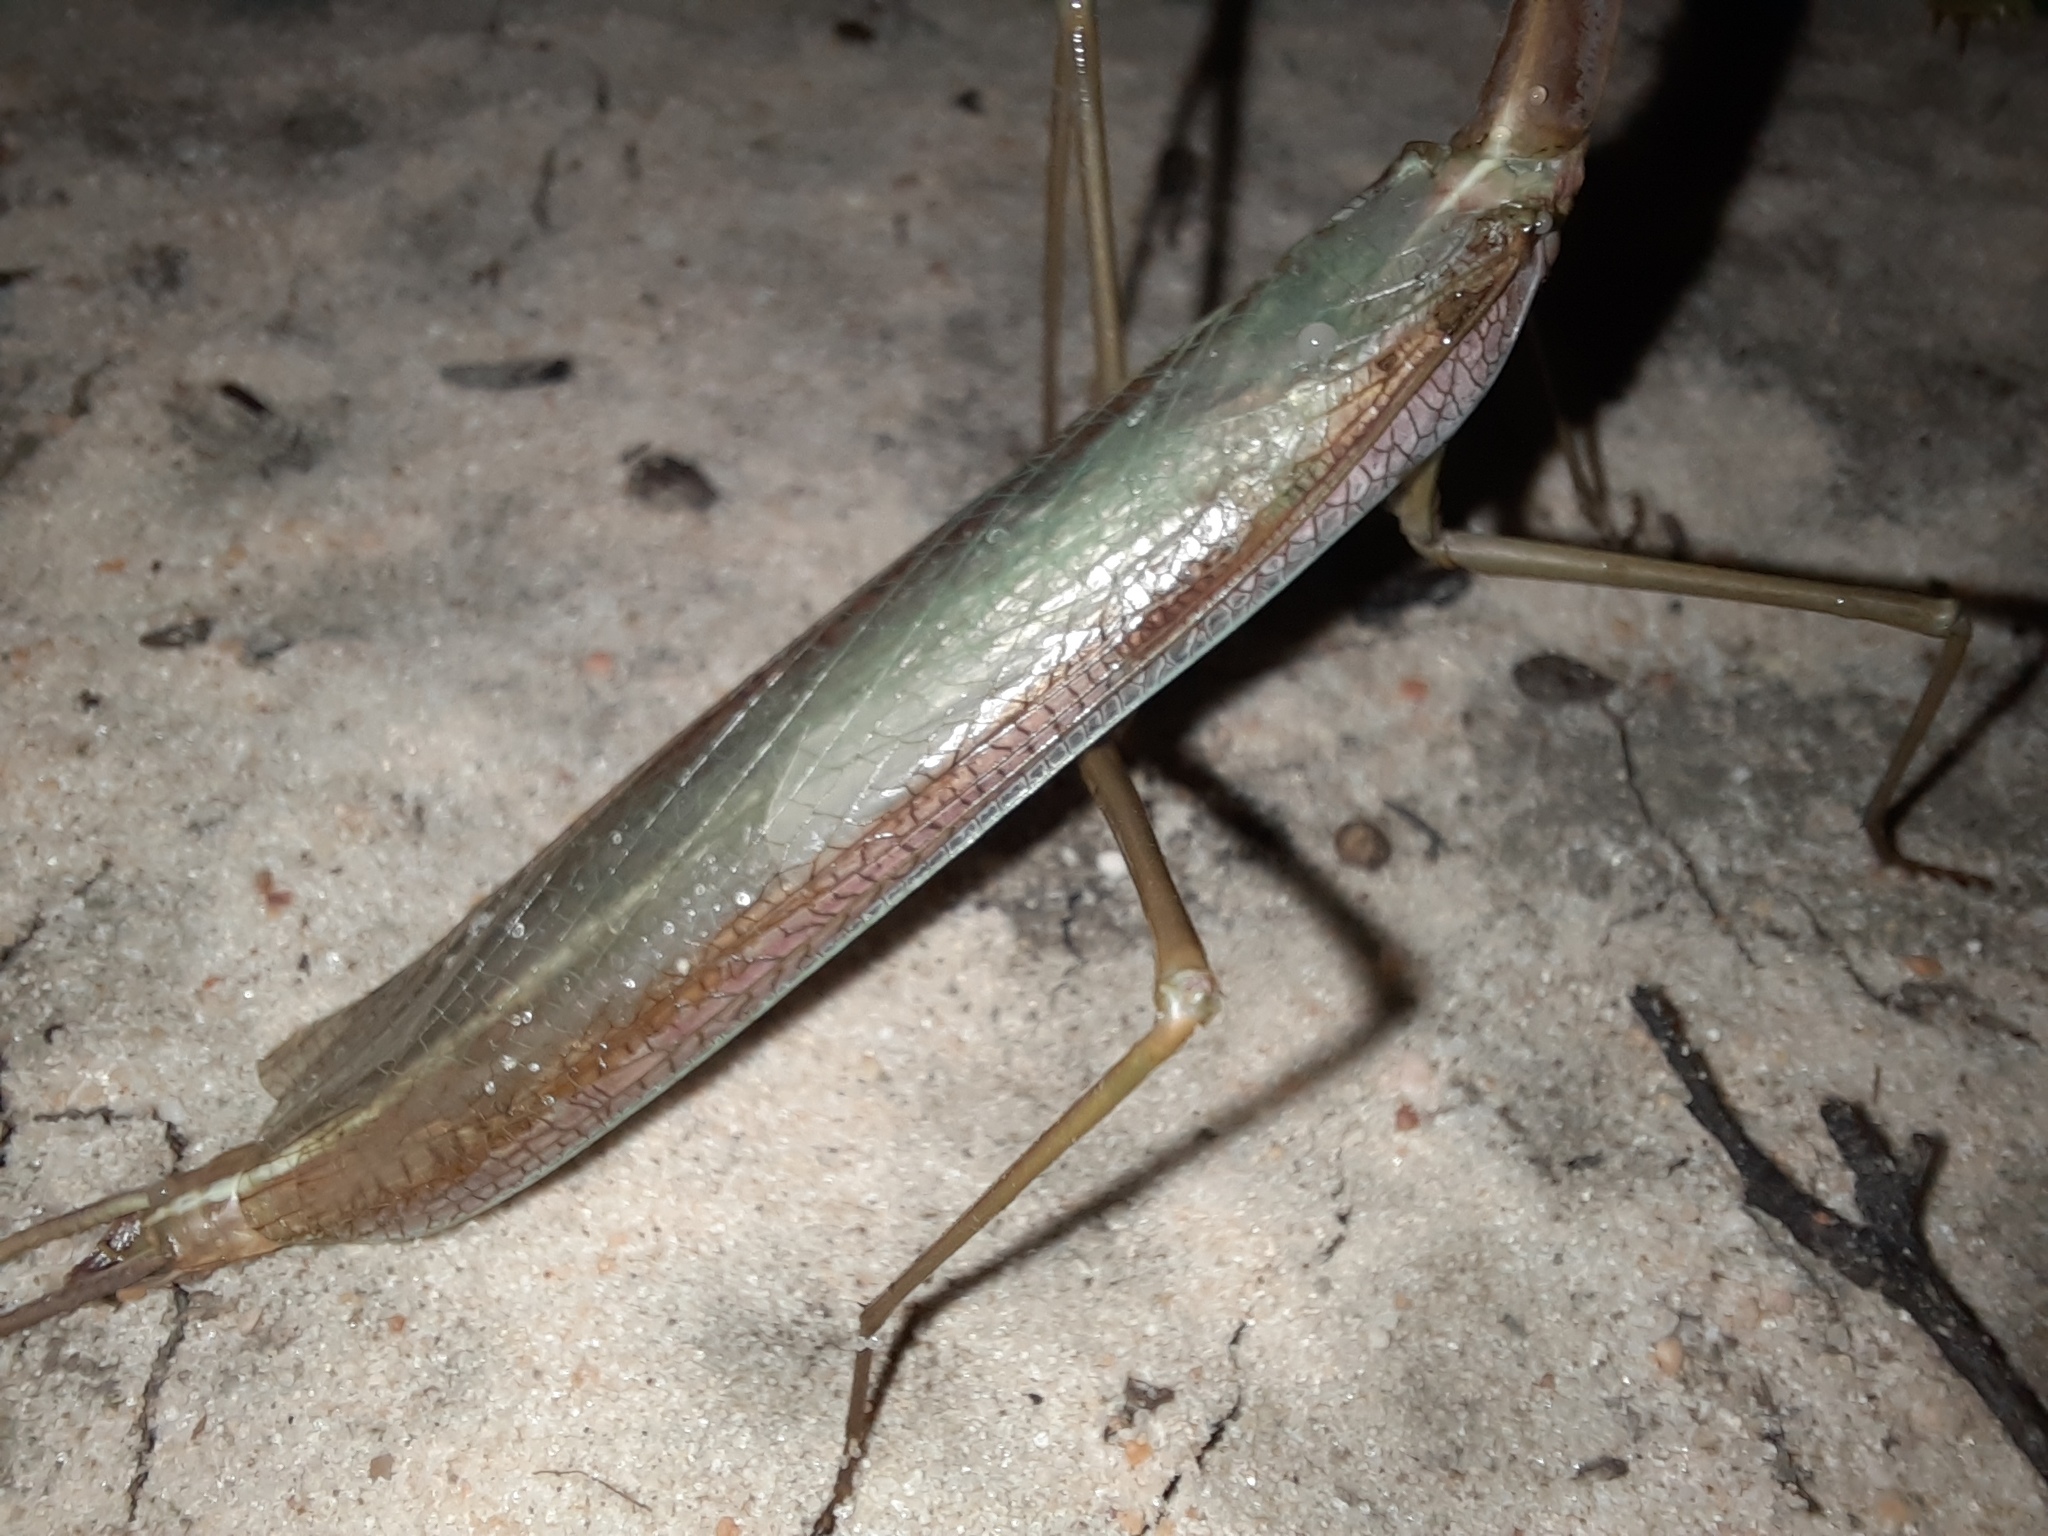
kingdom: Animalia
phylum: Arthropoda
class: Insecta
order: Mantodea
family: Mantidae
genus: Archimantis
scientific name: Archimantis sobrina
